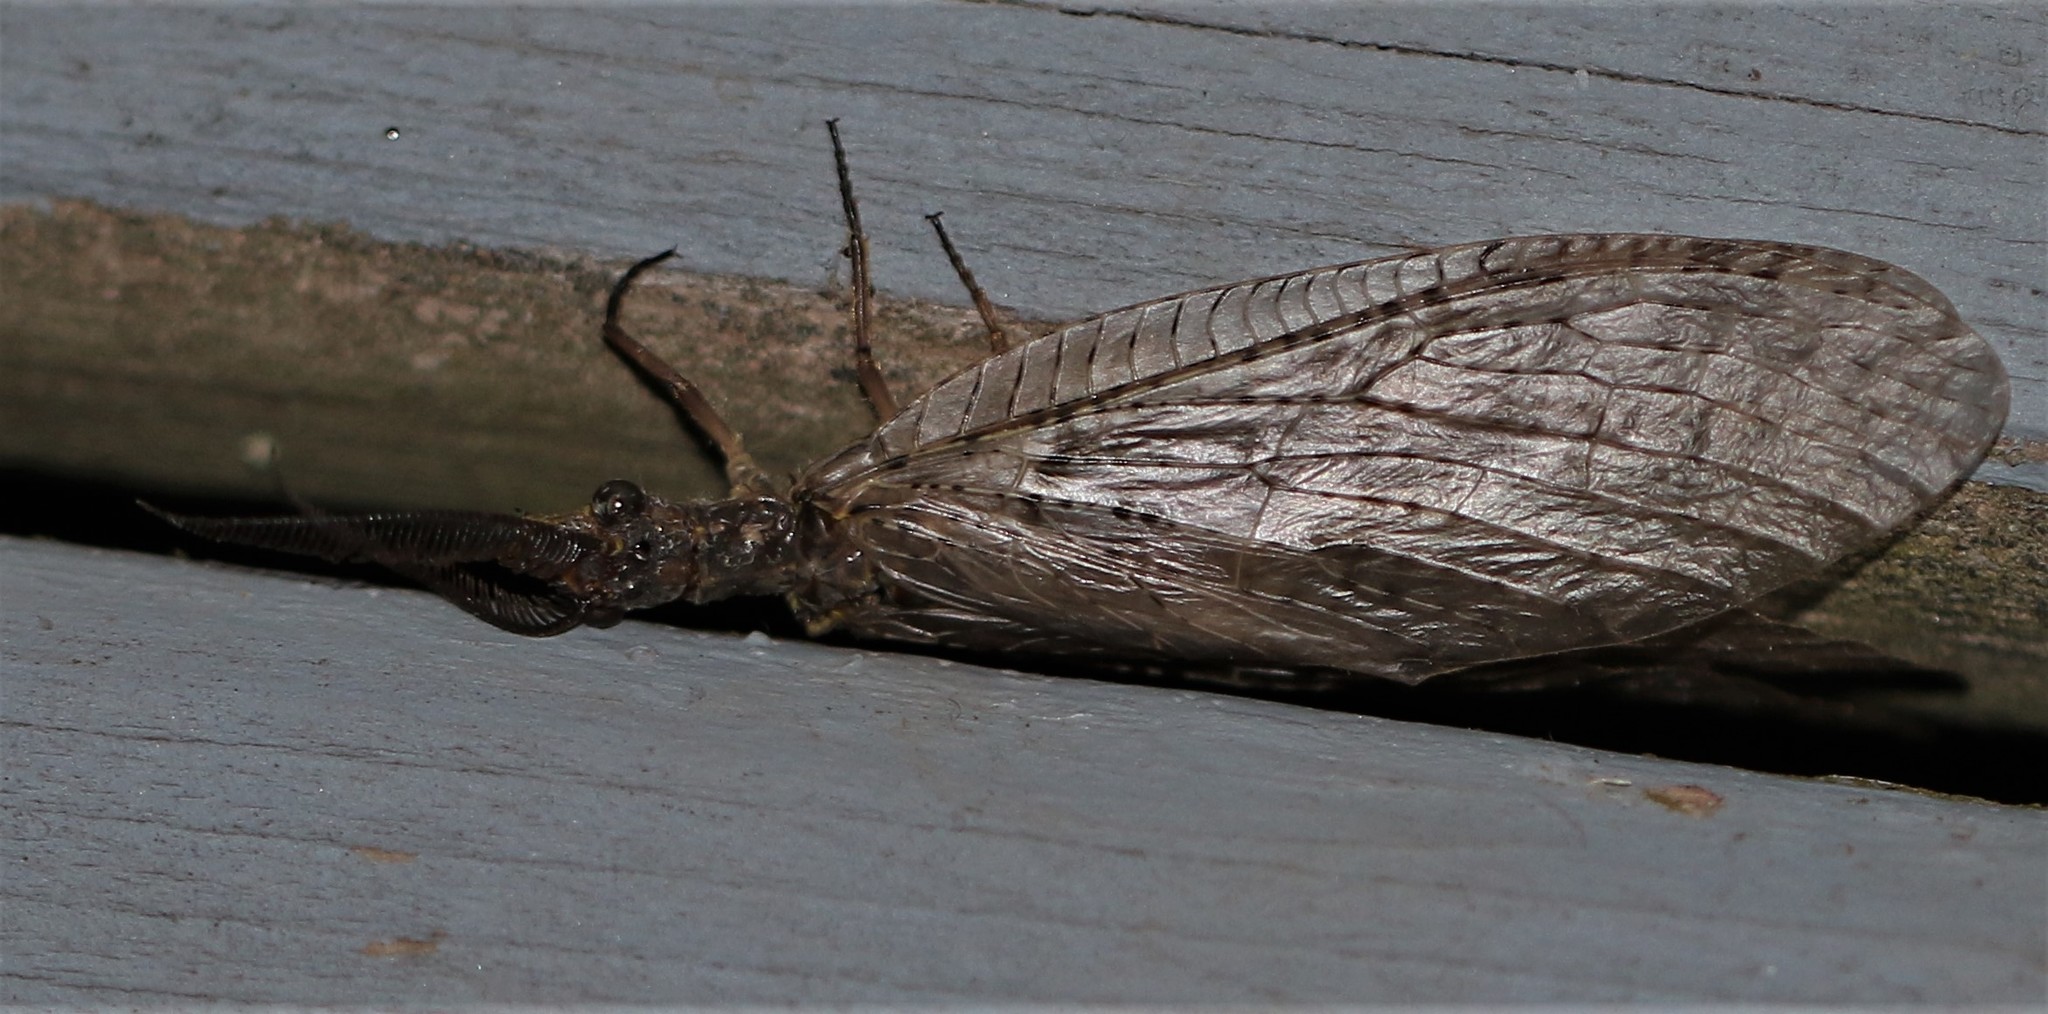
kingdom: Animalia
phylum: Arthropoda
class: Insecta
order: Megaloptera
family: Corydalidae
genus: Chauliodes
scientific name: Chauliodes pectinicornis
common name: Summer fishfly
